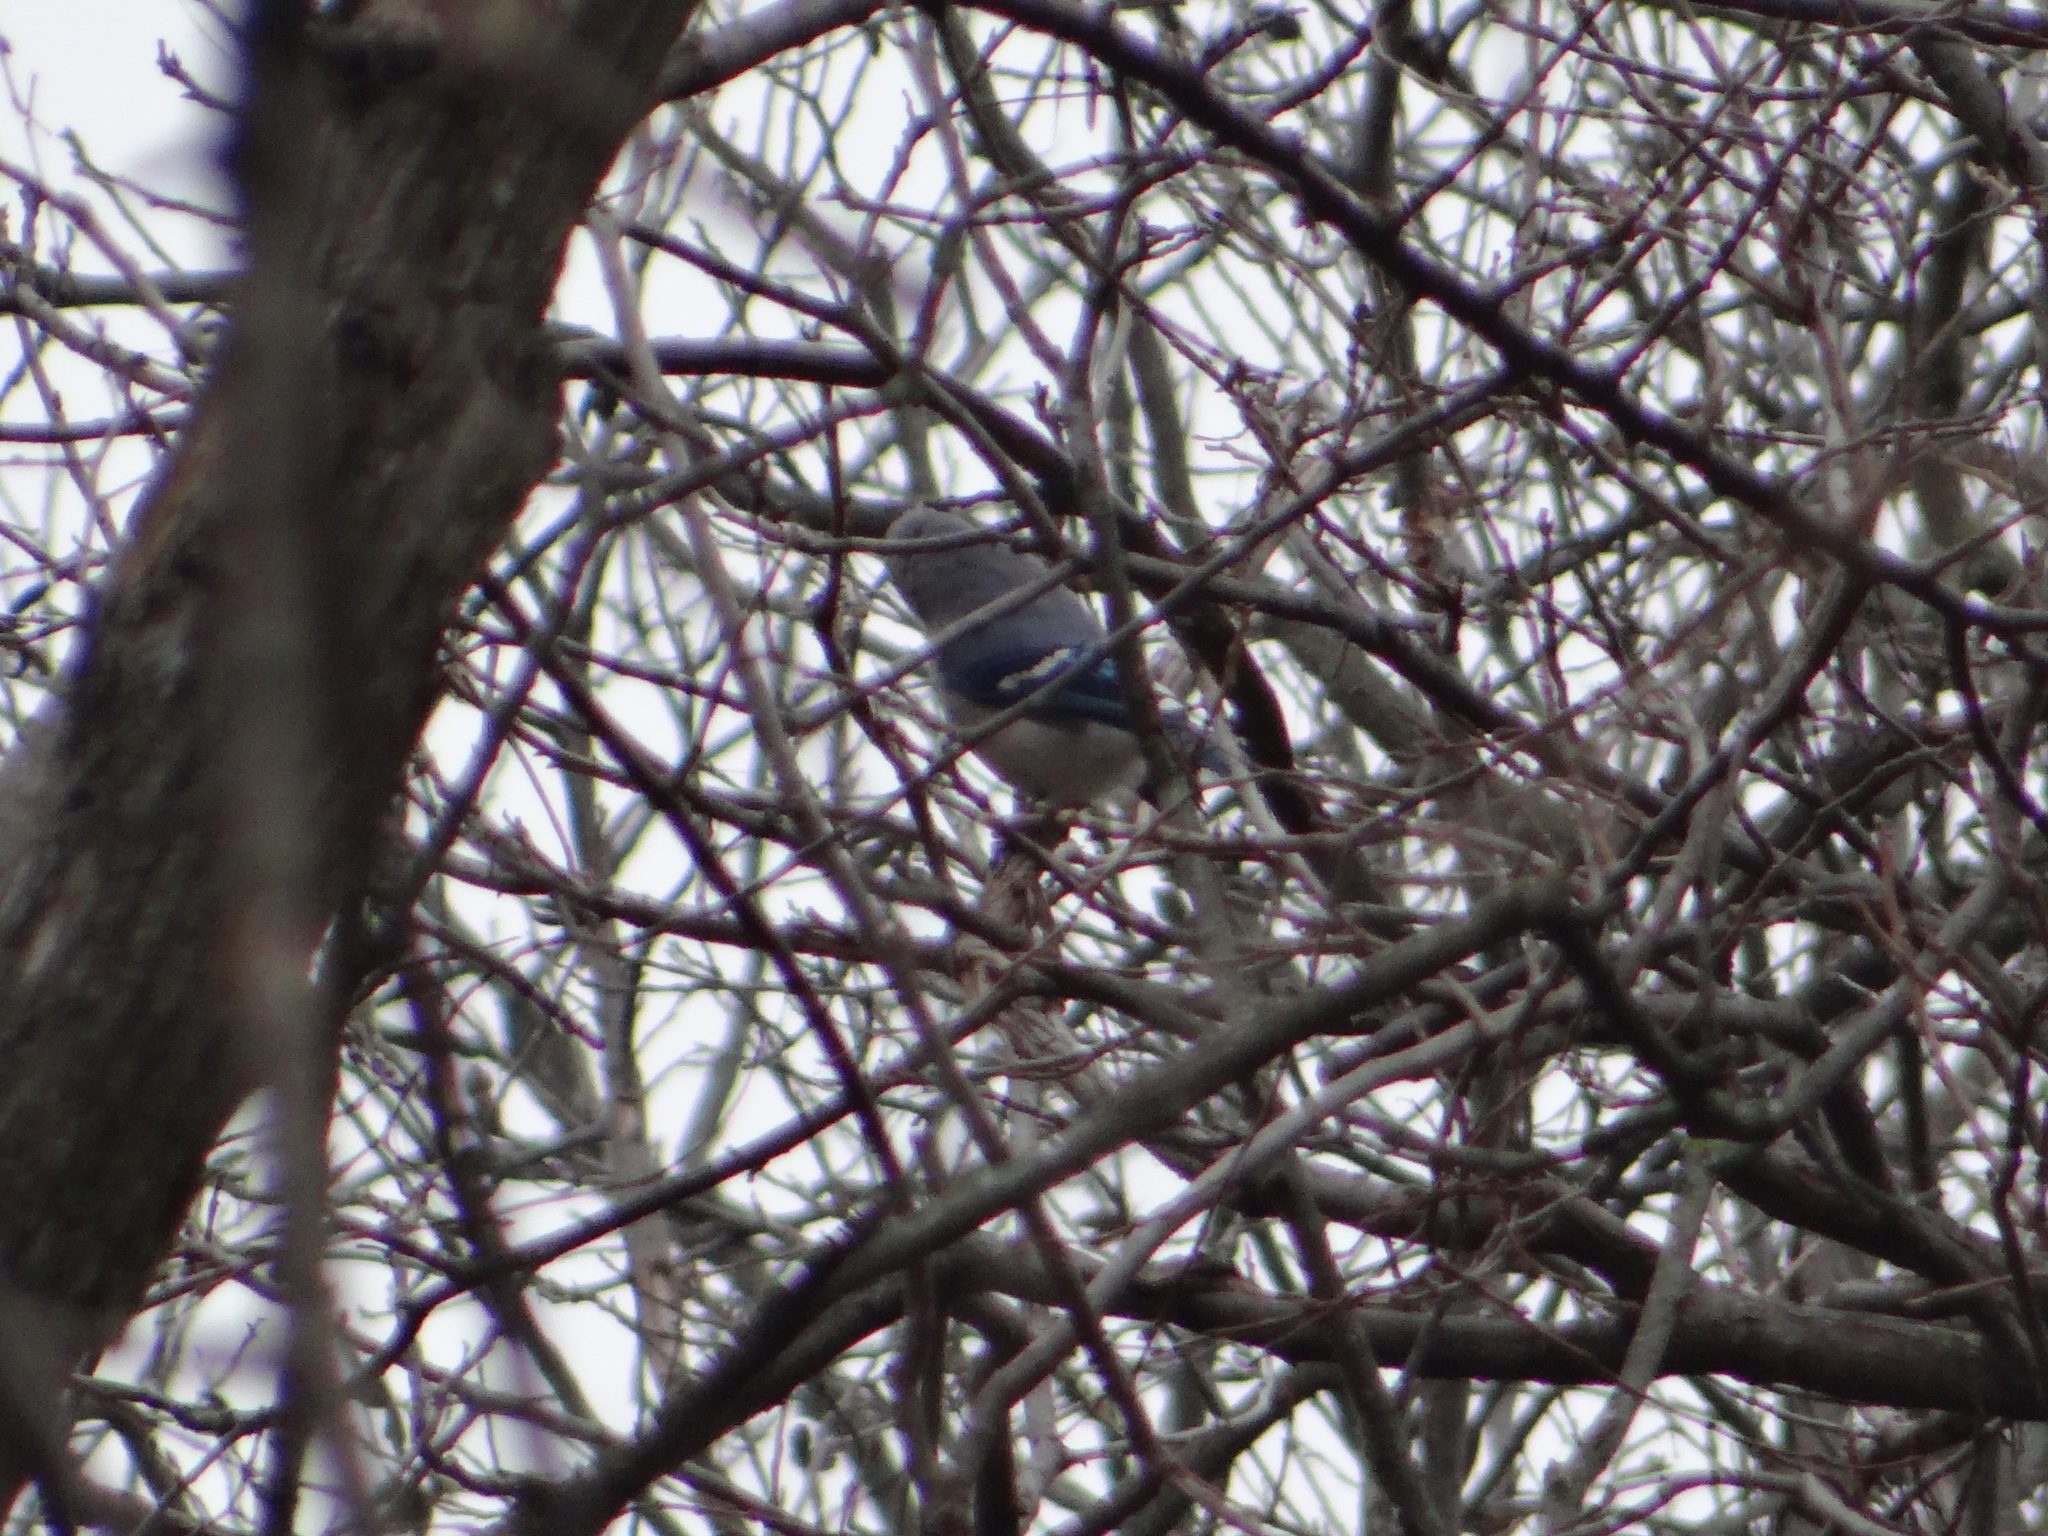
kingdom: Animalia
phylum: Chordata
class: Aves
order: Passeriformes
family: Corvidae
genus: Cyanocitta
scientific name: Cyanocitta cristata
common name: Blue jay
